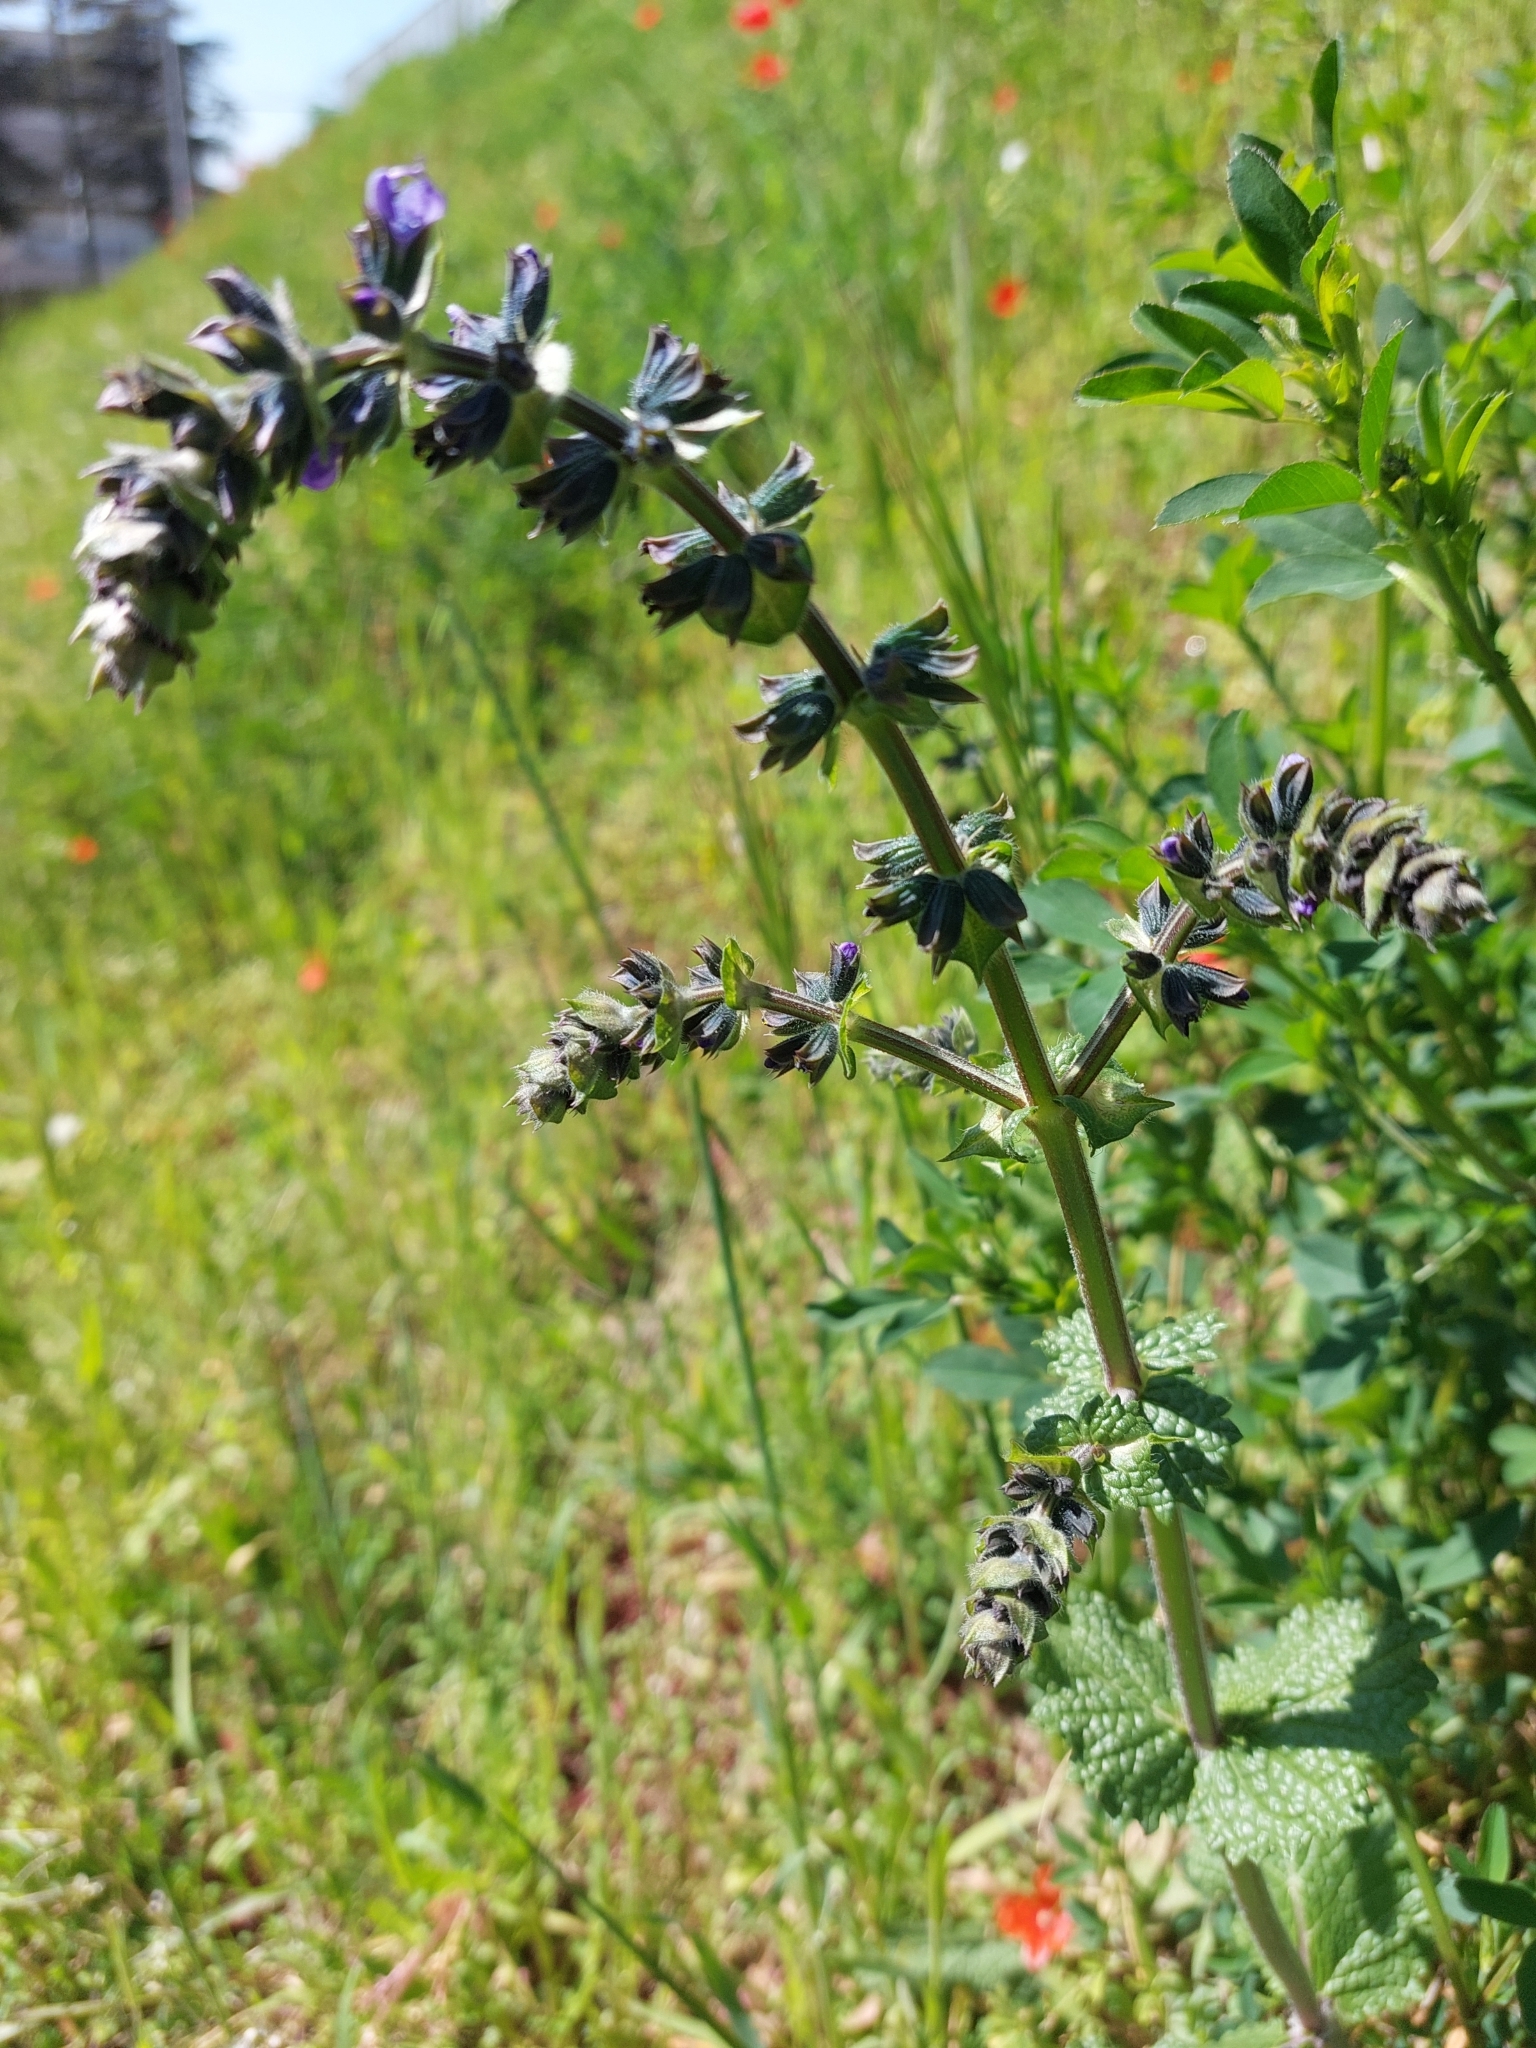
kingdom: Plantae
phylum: Tracheophyta
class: Magnoliopsida
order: Lamiales
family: Lamiaceae
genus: Salvia
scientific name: Salvia verbenaca
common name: Wild clary
